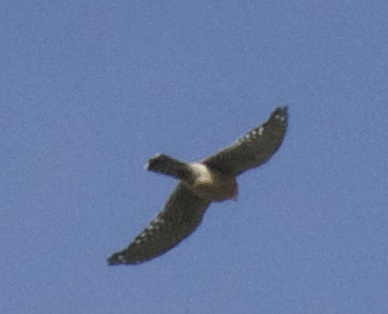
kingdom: Animalia
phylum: Chordata
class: Aves
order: Falconiformes
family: Falconidae
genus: Falco
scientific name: Falco sparverius
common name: American kestrel
